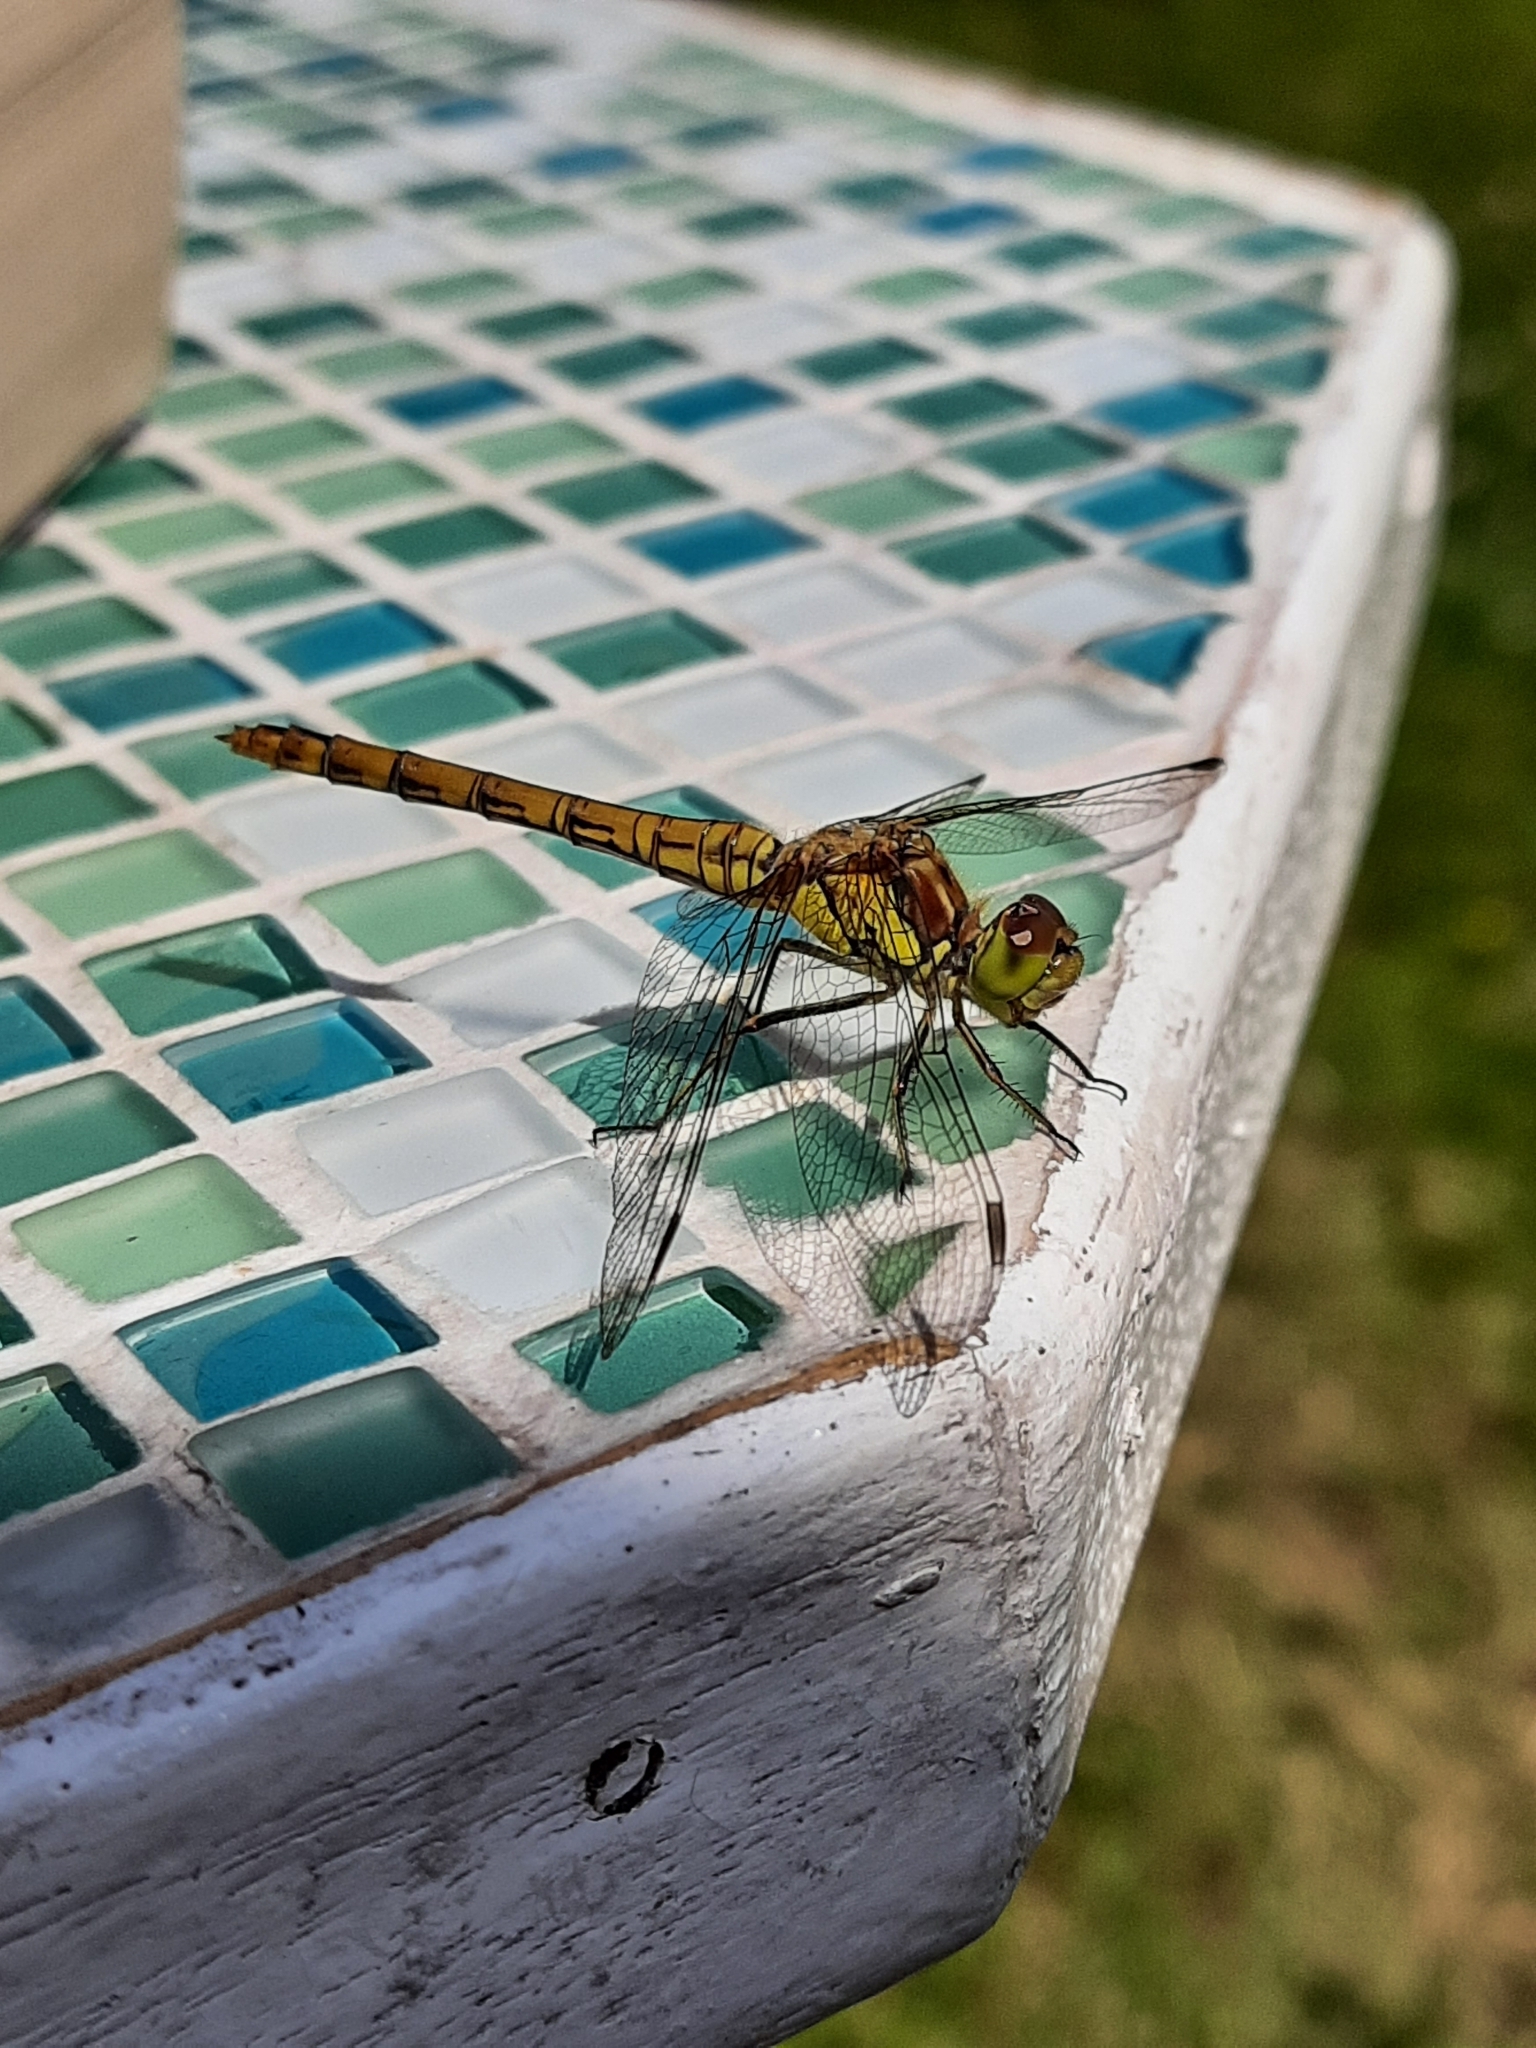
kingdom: Animalia
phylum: Arthropoda
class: Insecta
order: Odonata
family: Libellulidae
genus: Sympetrum
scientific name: Sympetrum striolatum
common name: Common darter
